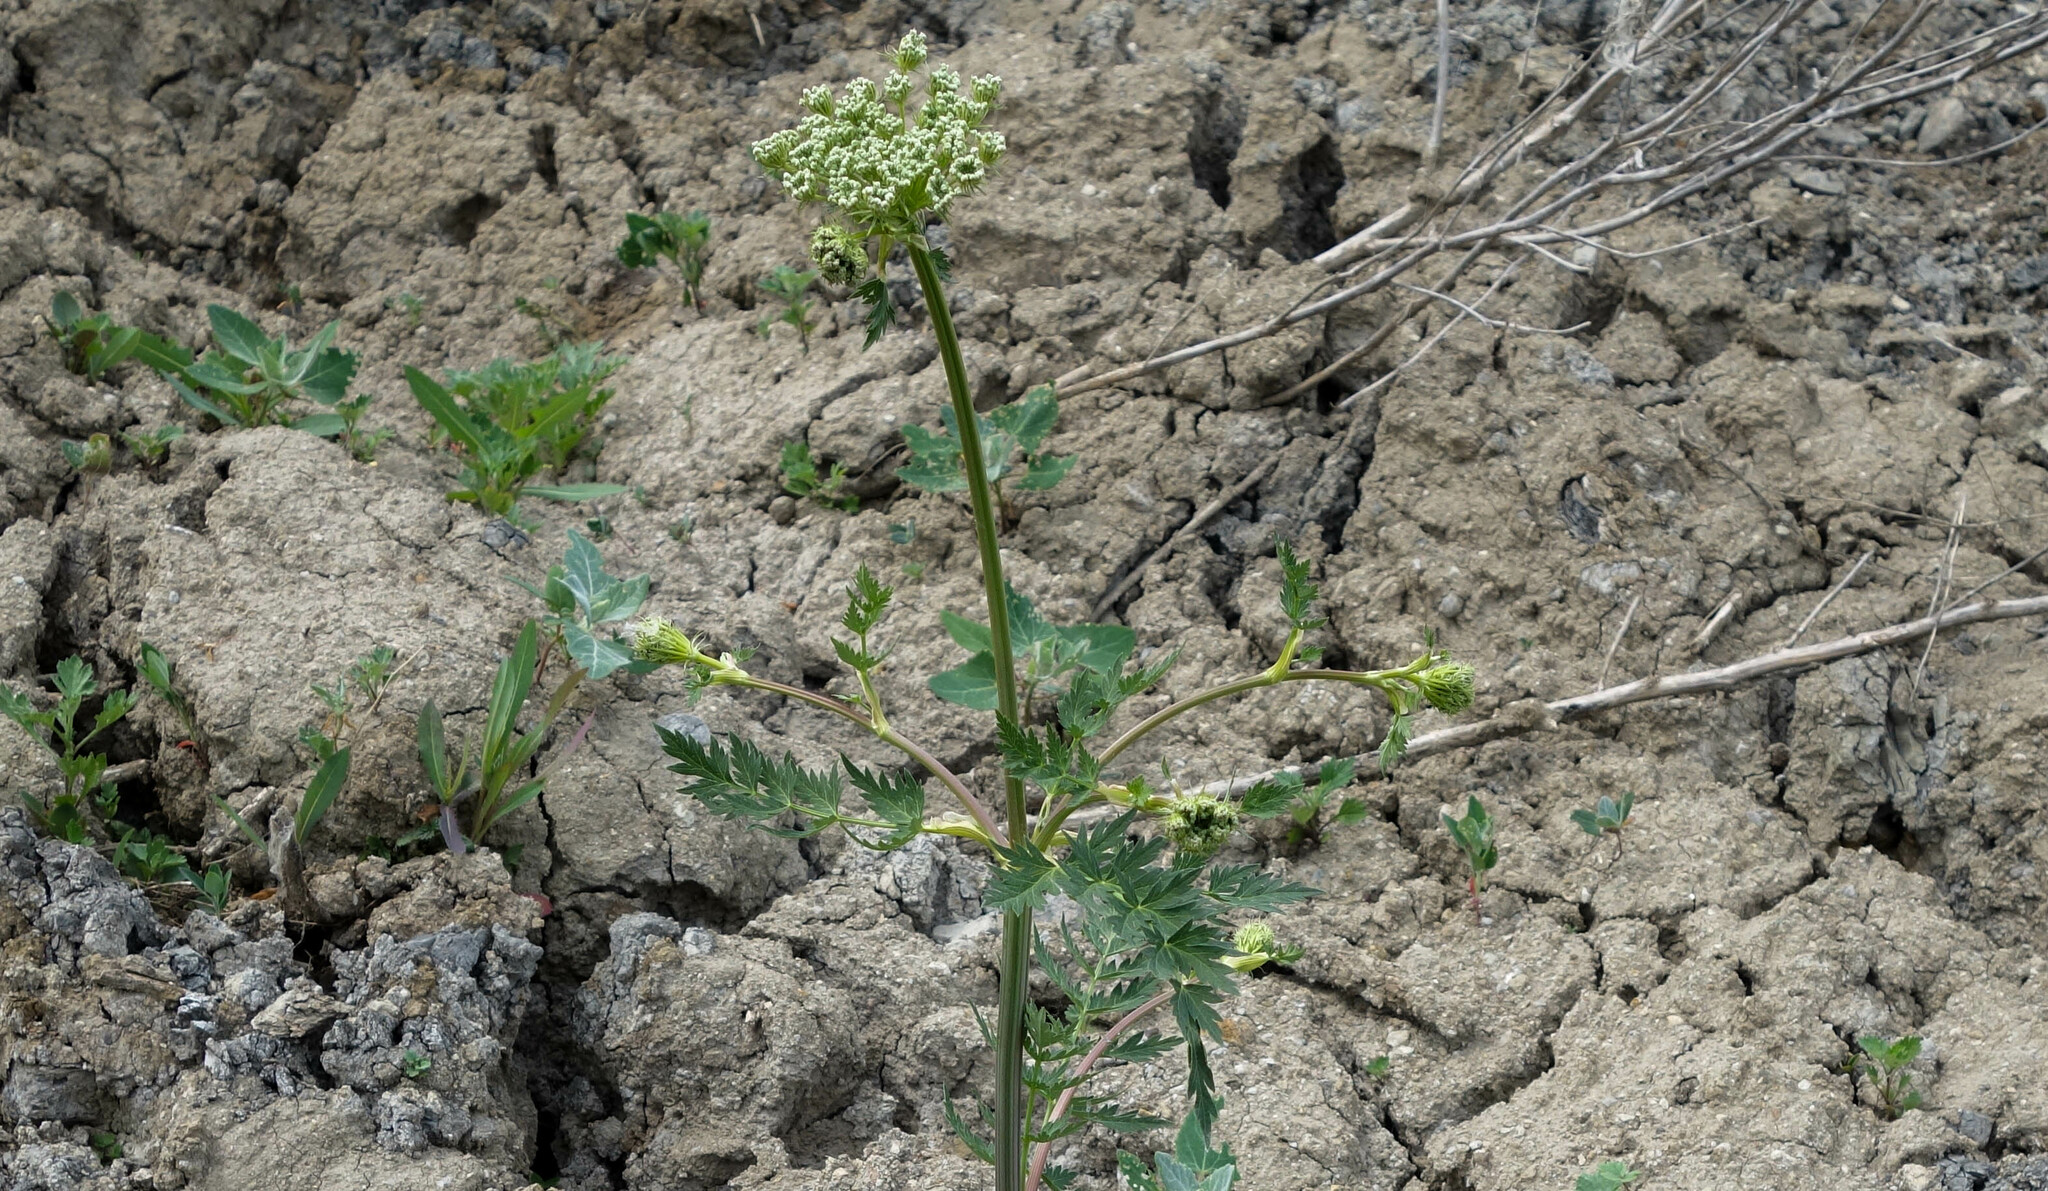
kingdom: Plantae
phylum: Tracheophyta
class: Magnoliopsida
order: Apiales
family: Apiaceae
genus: Seseli
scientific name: Seseli libanotis
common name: Mooncarrot
